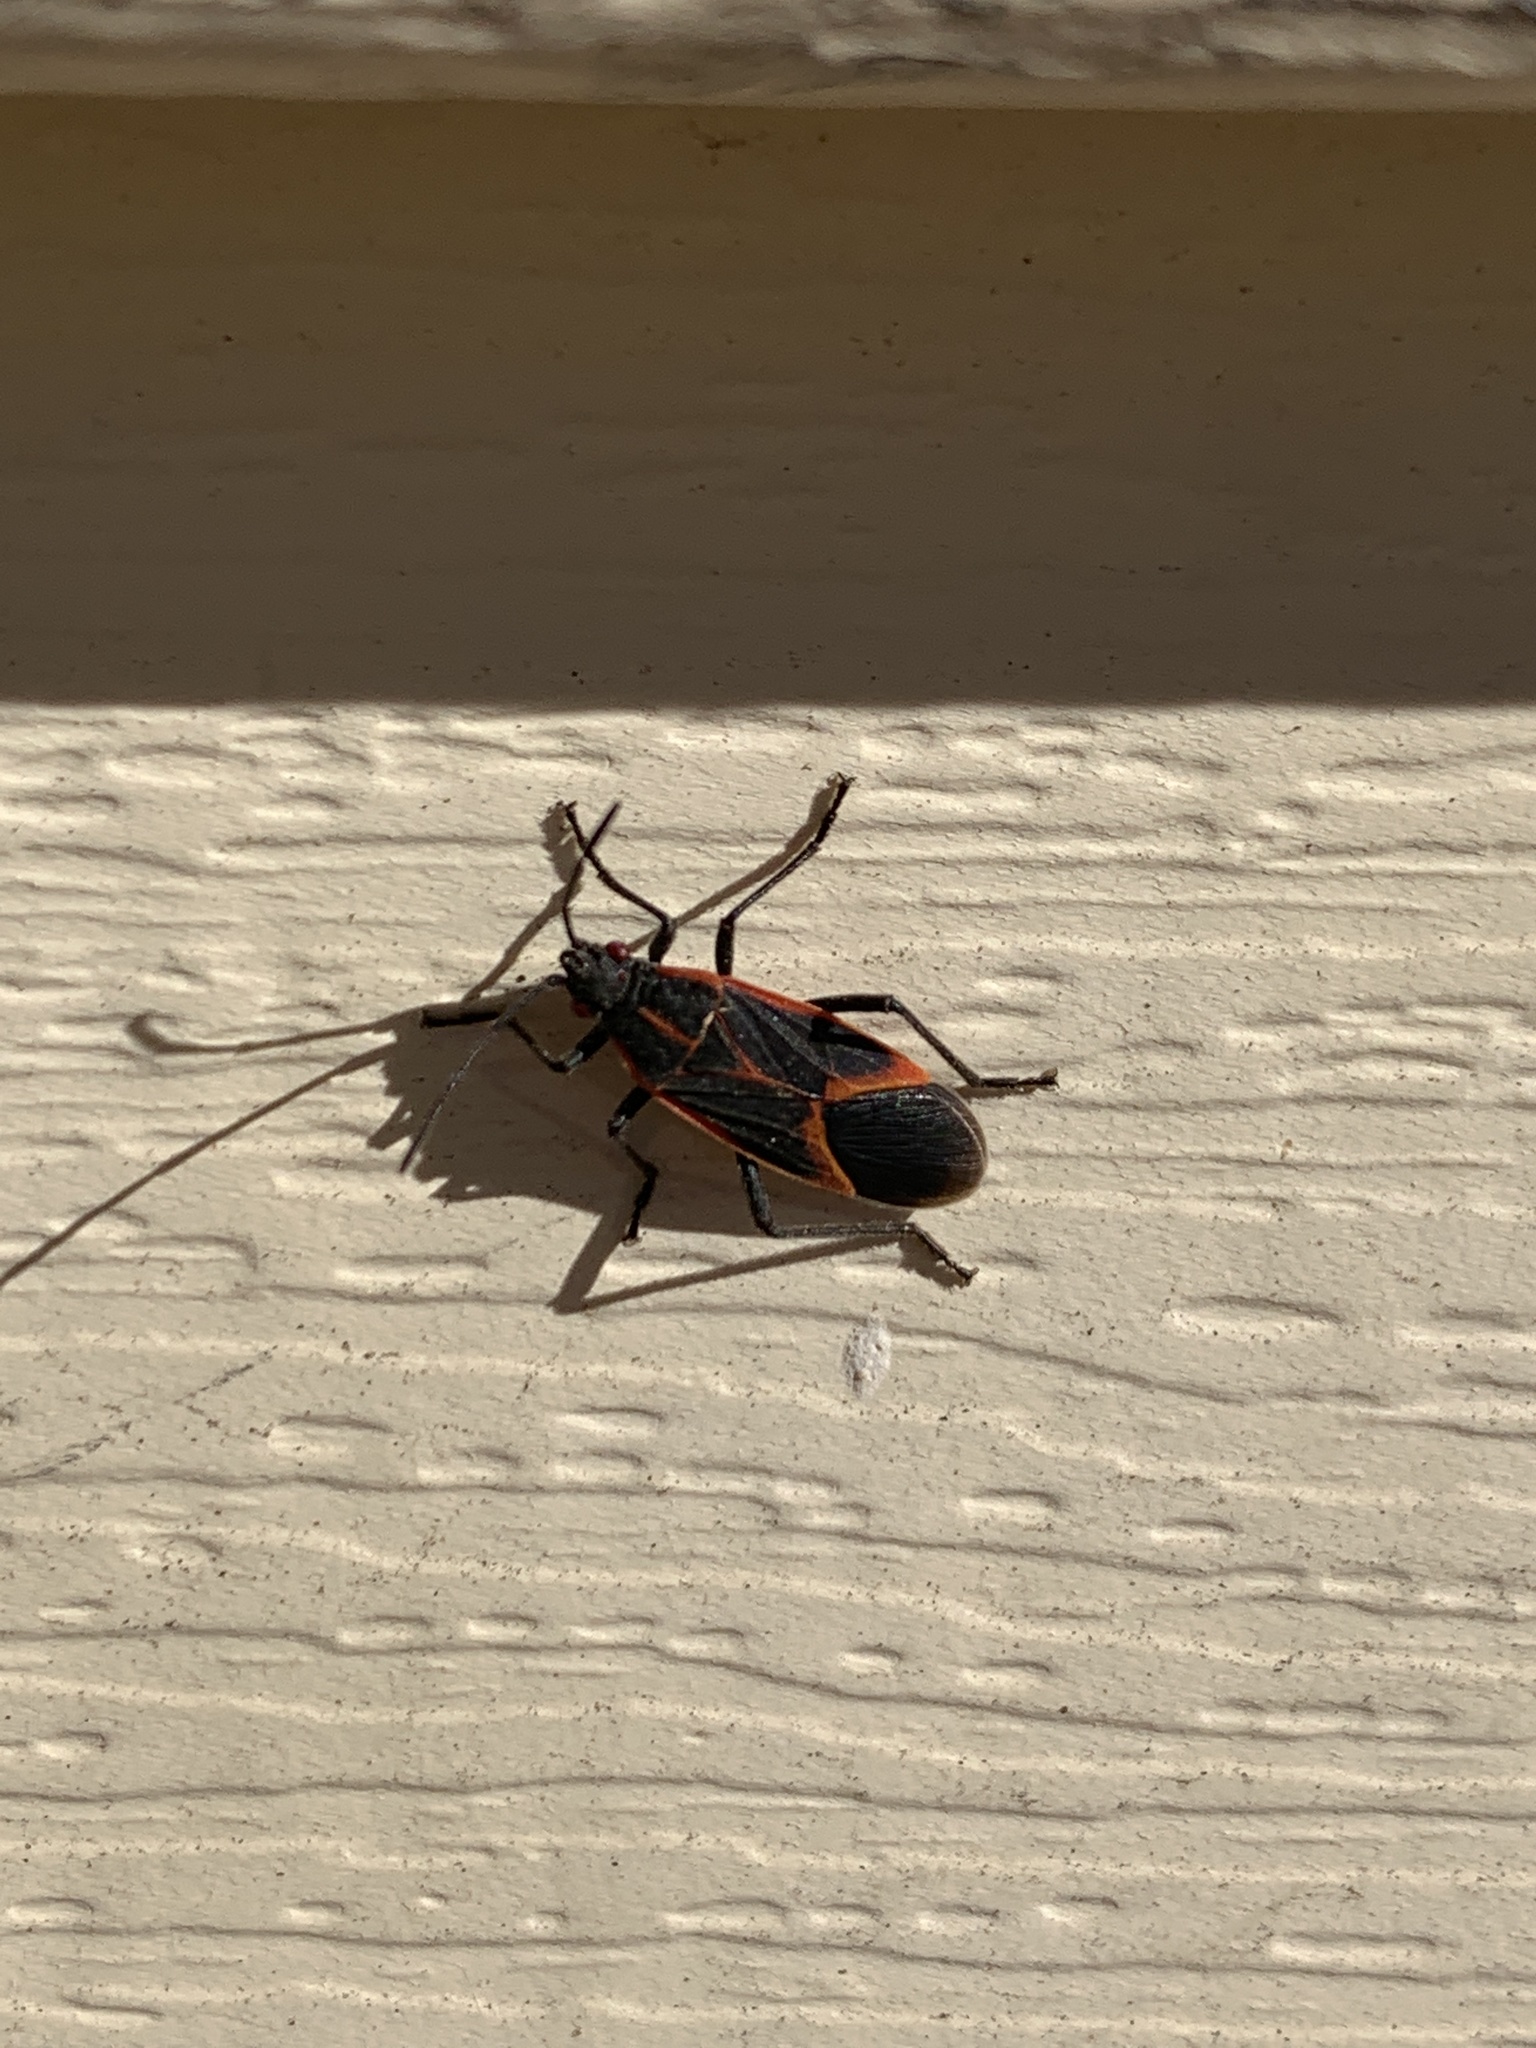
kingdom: Animalia
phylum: Arthropoda
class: Insecta
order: Hemiptera
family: Rhopalidae
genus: Boisea
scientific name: Boisea trivittata
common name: Boxelder bug
